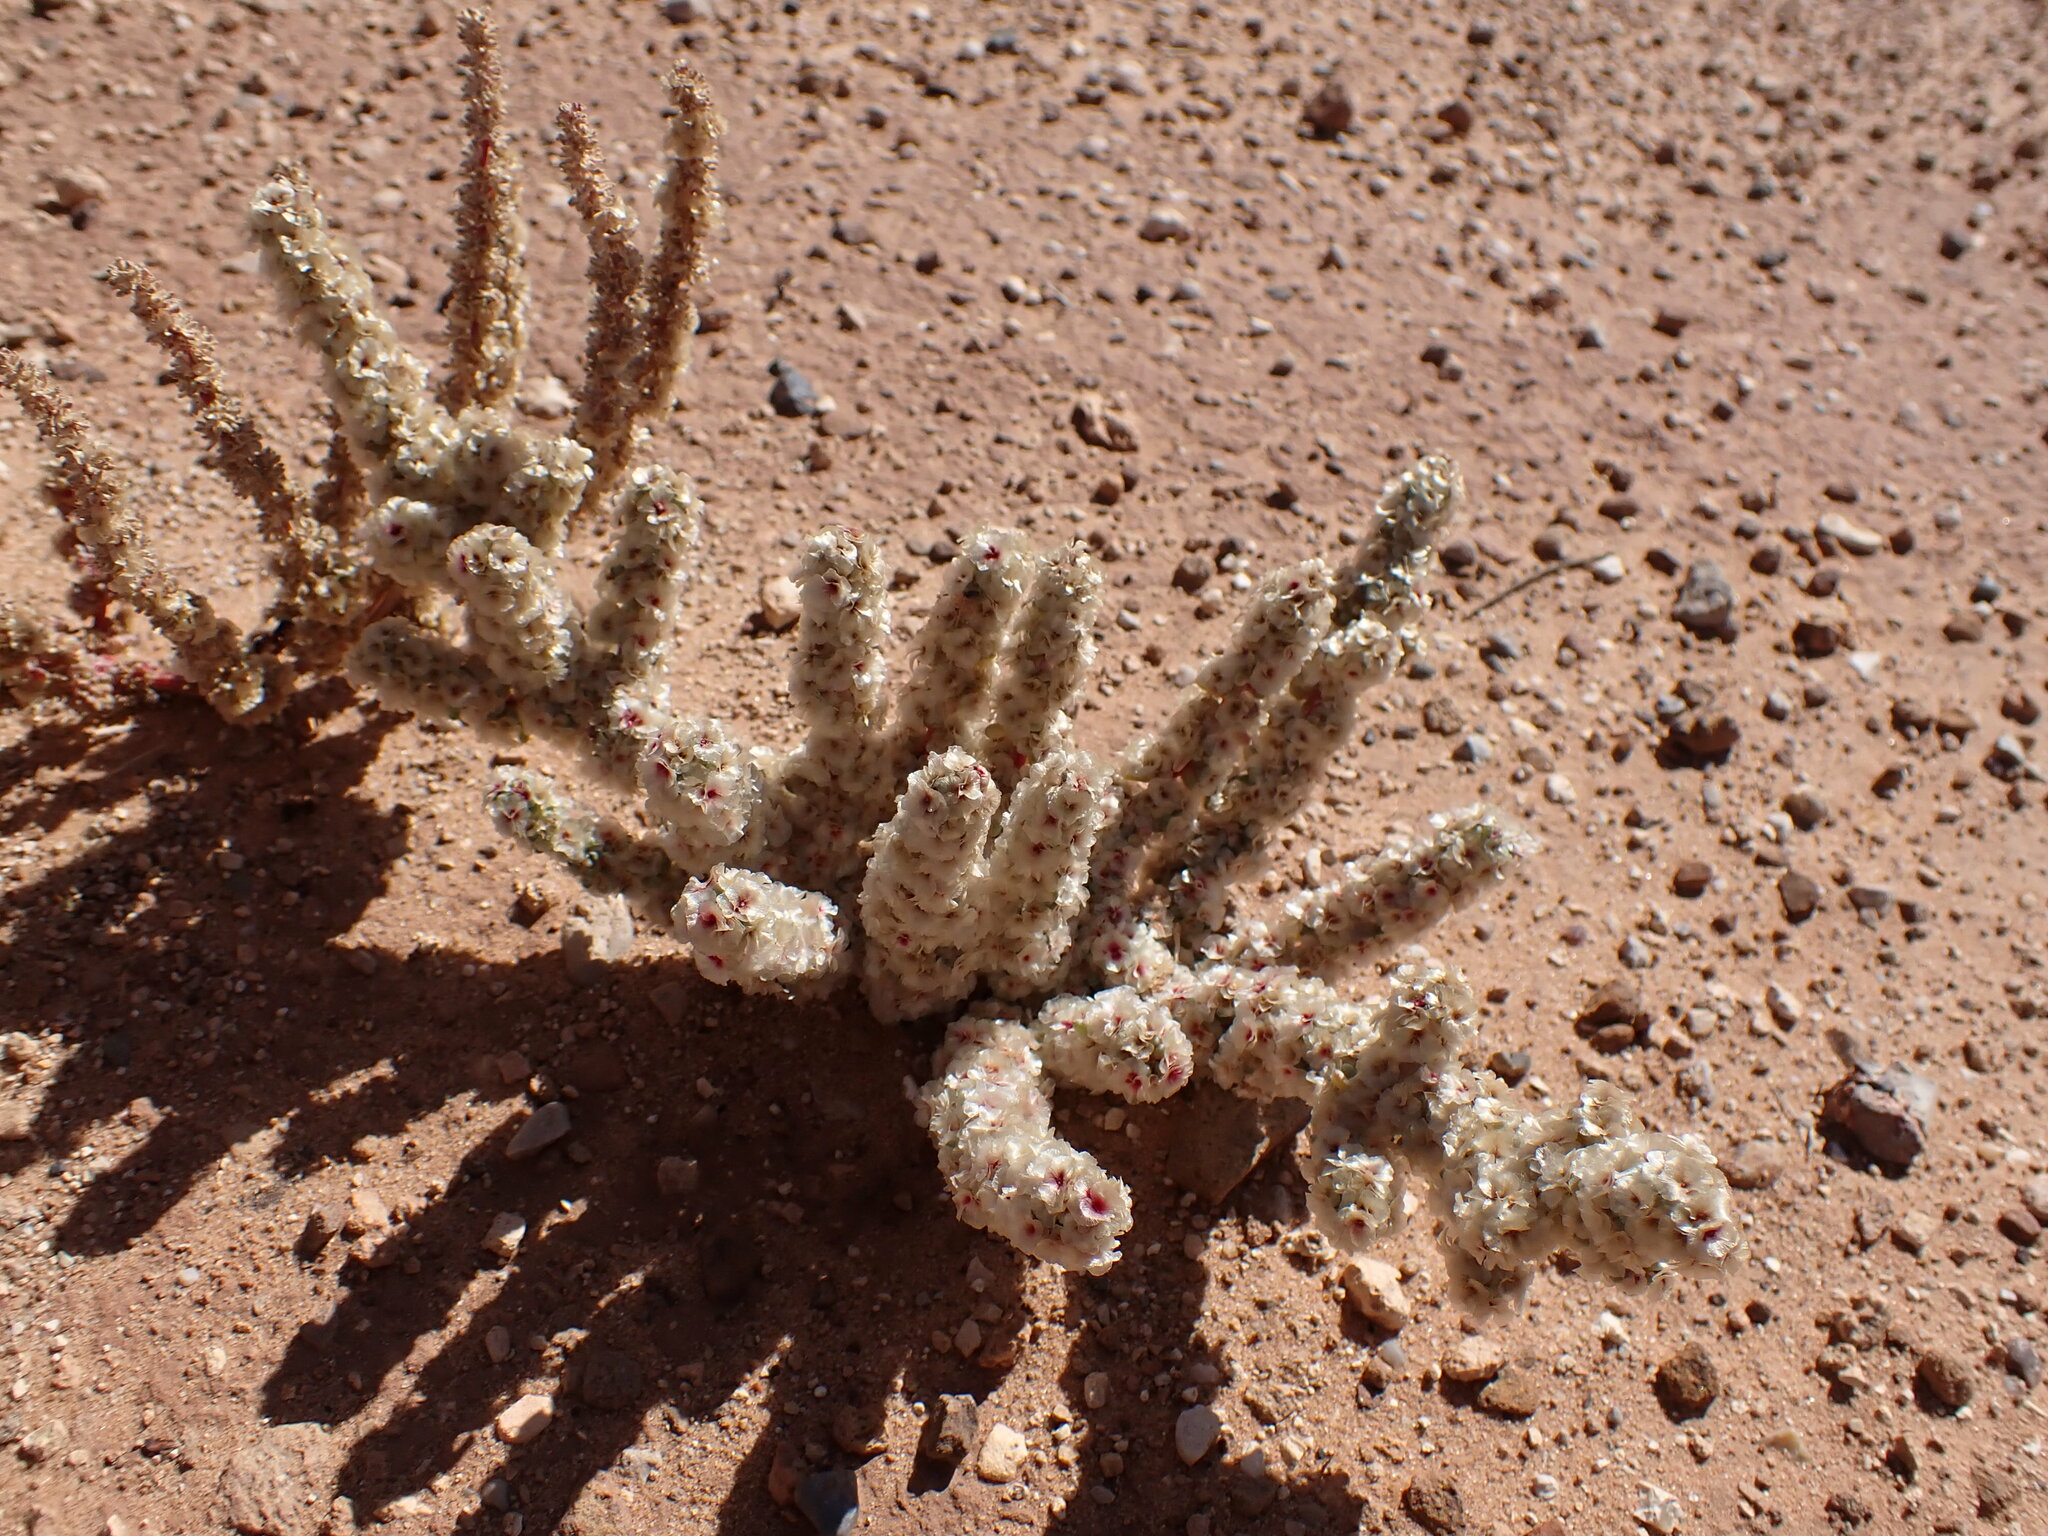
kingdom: Plantae
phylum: Tracheophyta
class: Magnoliopsida
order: Caryophyllales
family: Amaranthaceae
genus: Halogeton
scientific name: Halogeton glomeratus
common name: Saltlover
